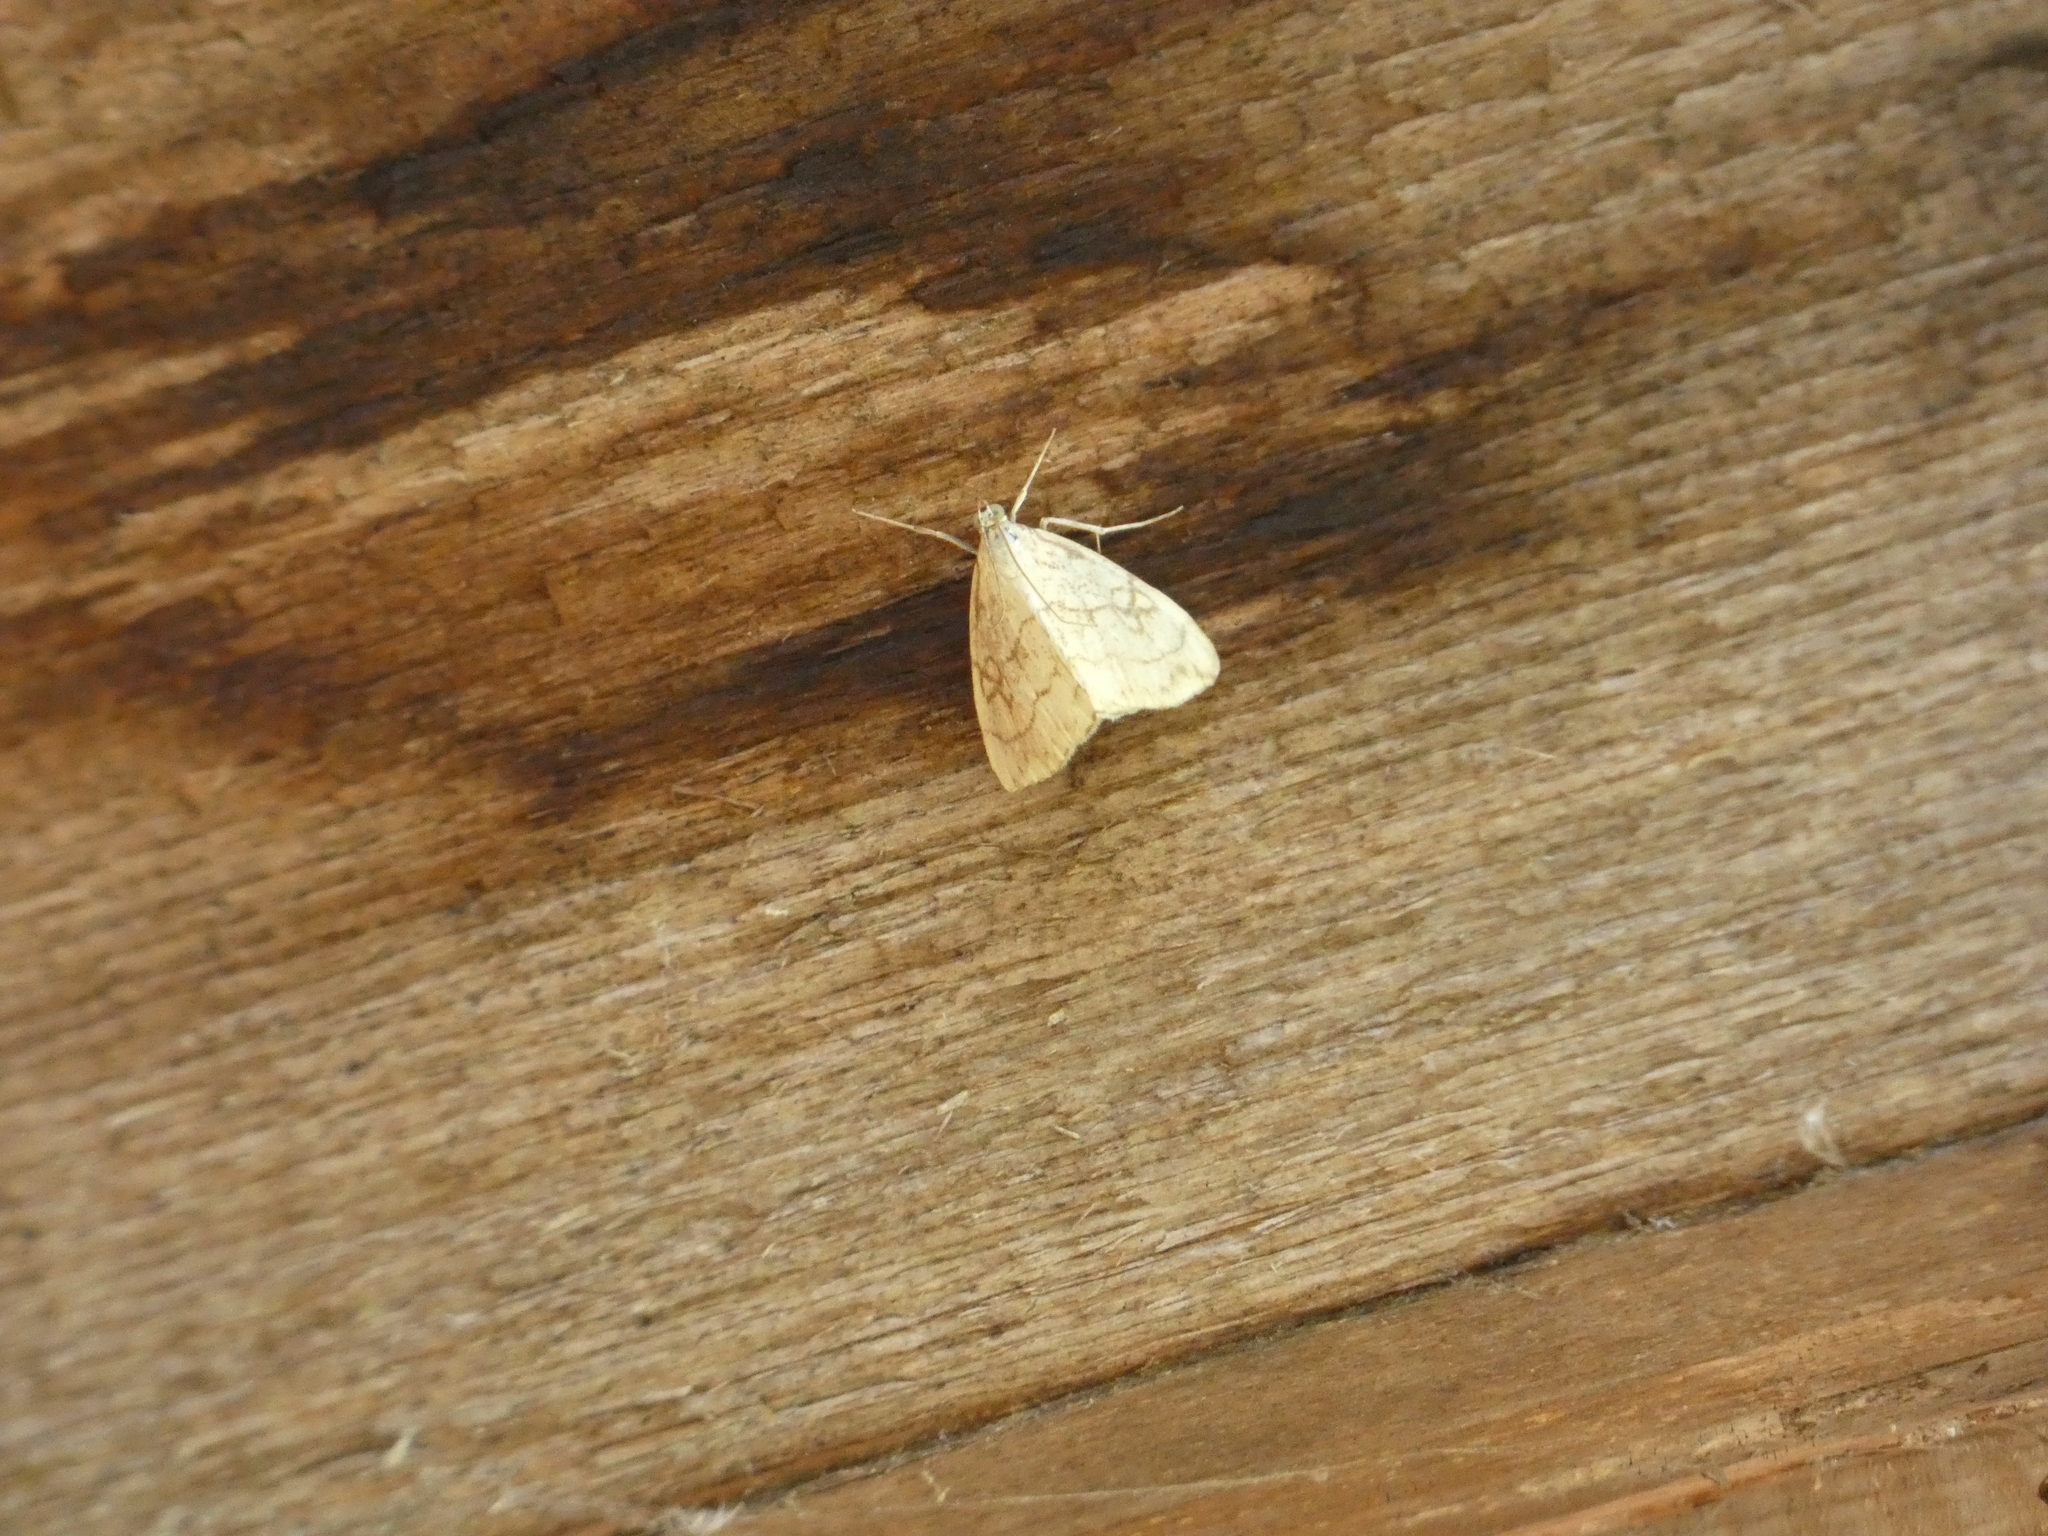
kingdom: Animalia
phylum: Arthropoda
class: Insecta
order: Lepidoptera
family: Crambidae
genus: Evergestis
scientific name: Evergestis pallidata
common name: Chequered pearl
